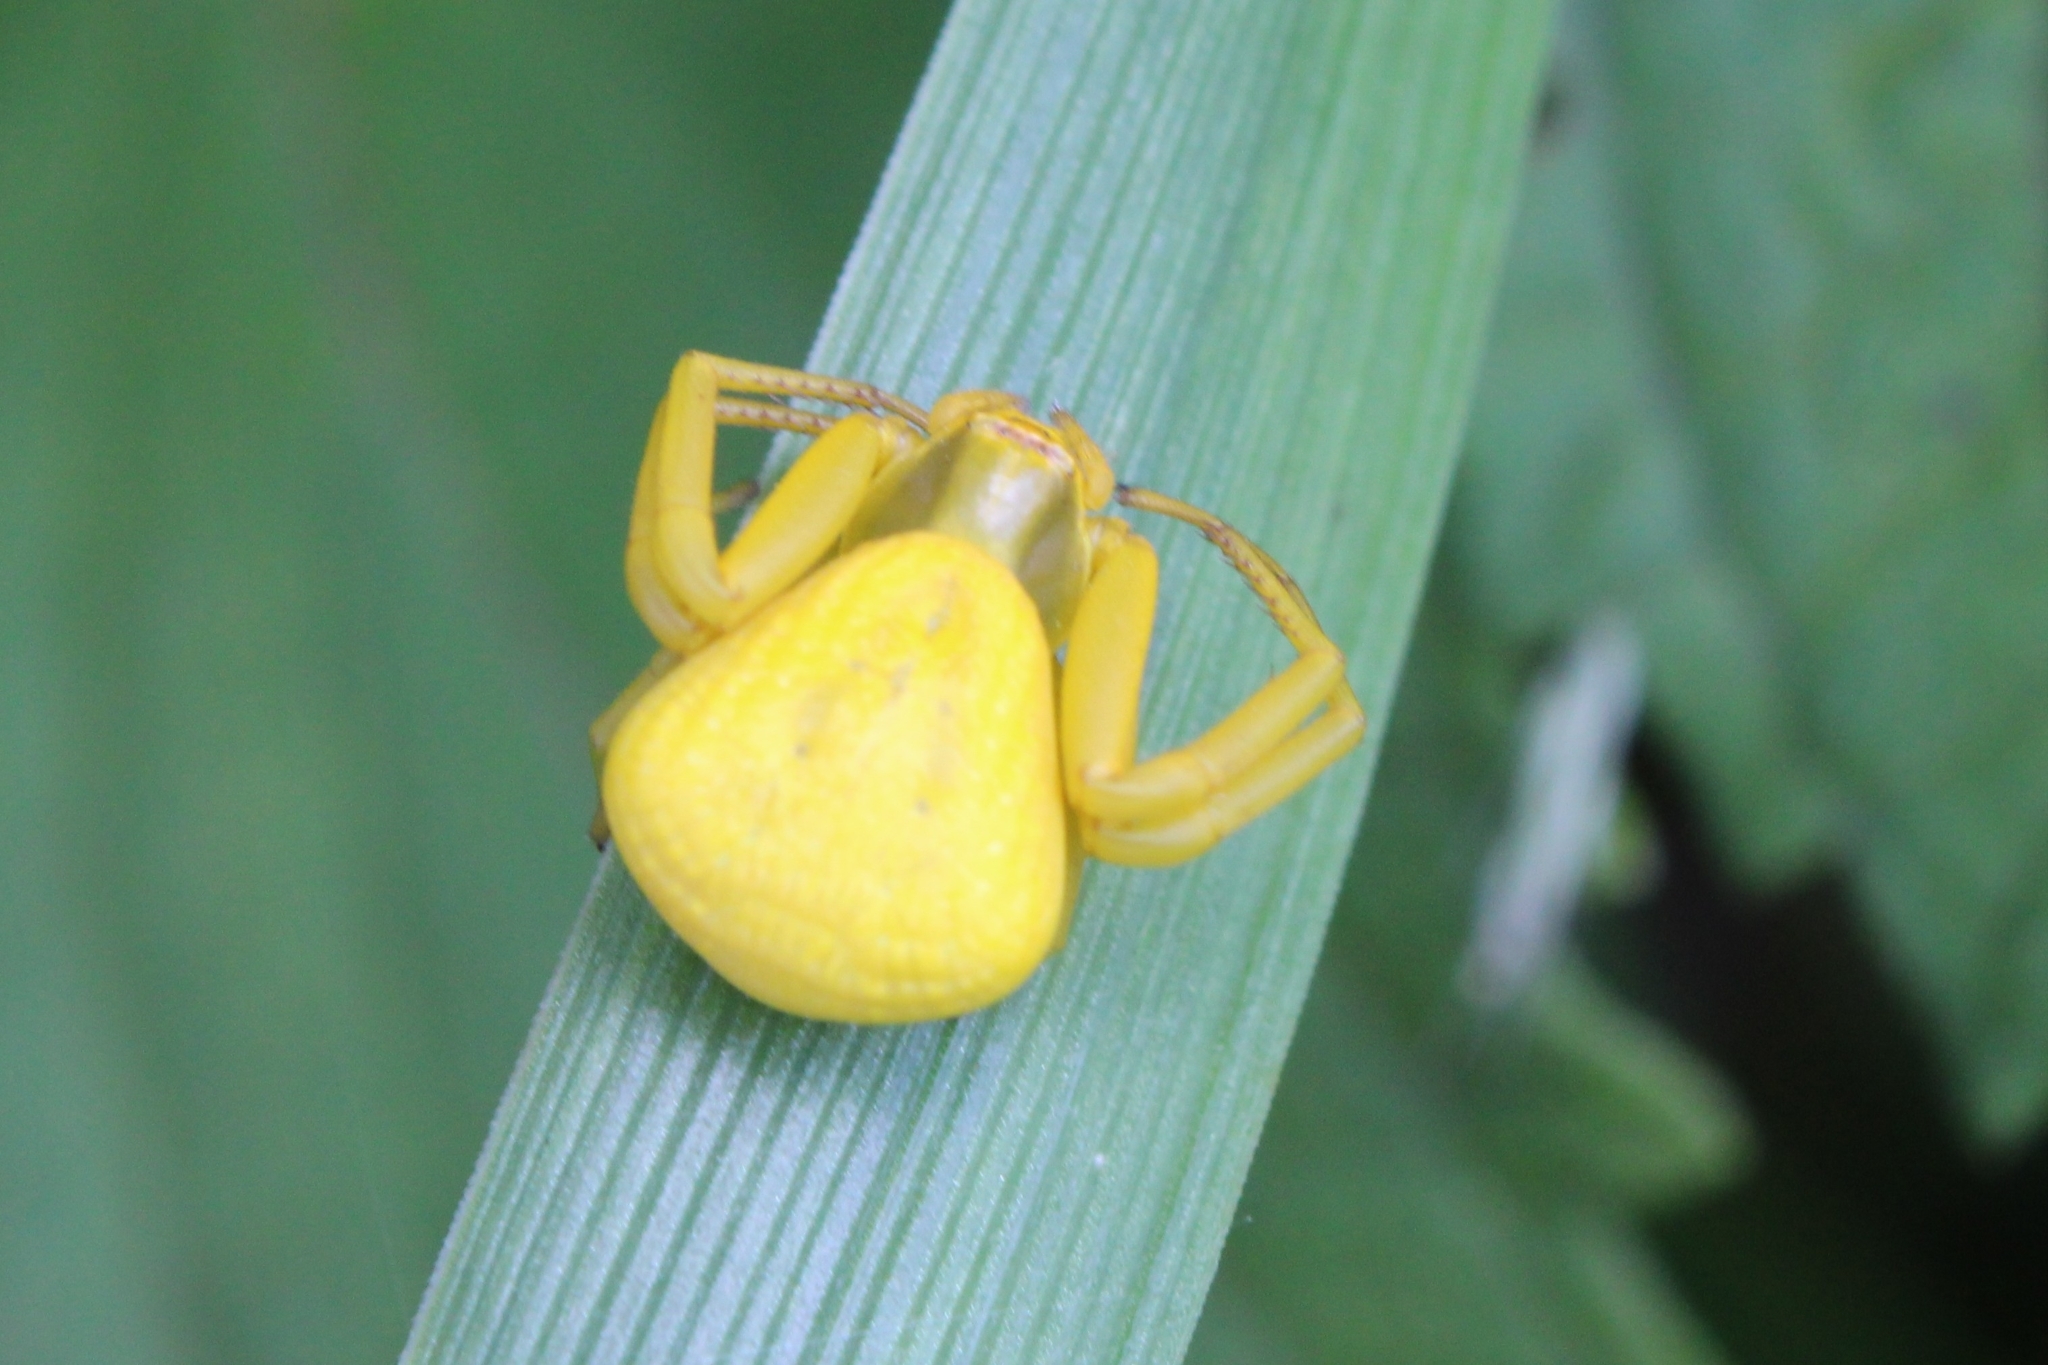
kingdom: Animalia
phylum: Arthropoda
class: Arachnida
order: Araneae
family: Thomisidae
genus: Misumenoides
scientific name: Misumenoides formosipes
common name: White-banded crab spider
